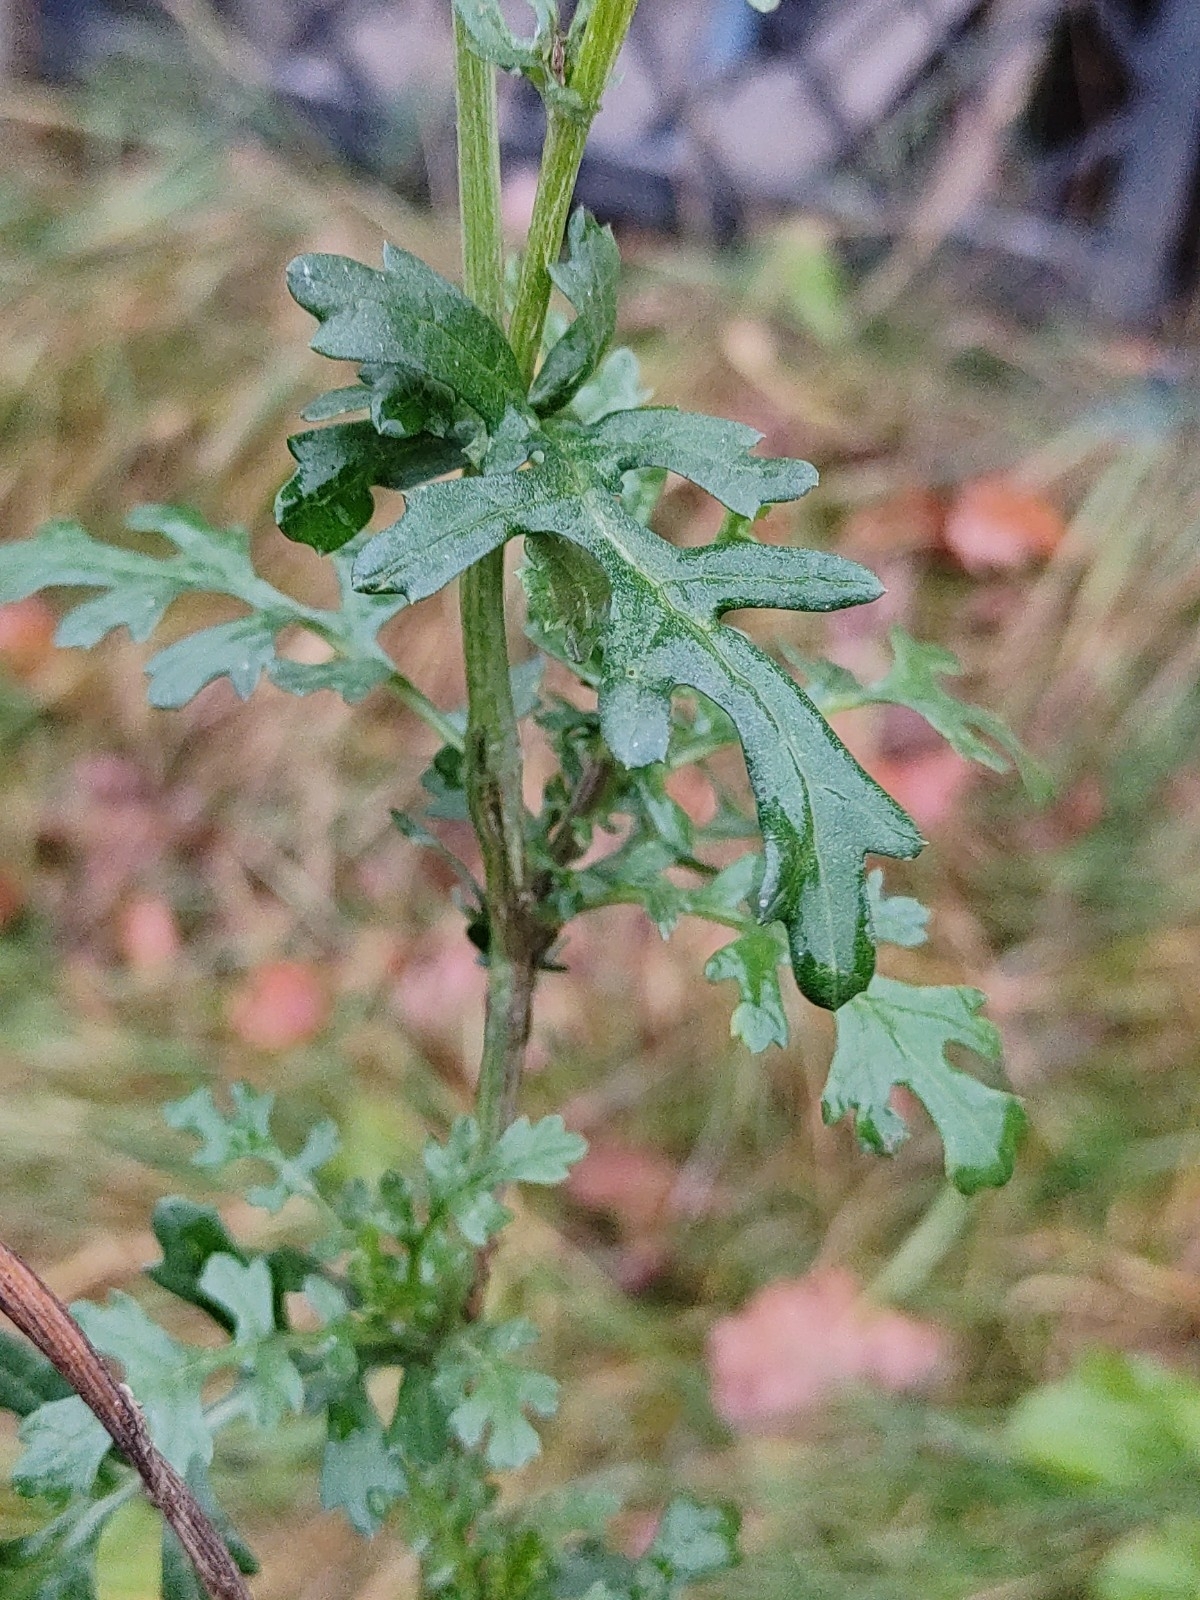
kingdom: Plantae
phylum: Tracheophyta
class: Magnoliopsida
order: Asterales
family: Asteraceae
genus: Jacobaea
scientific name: Jacobaea vulgaris
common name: Stinking willie
